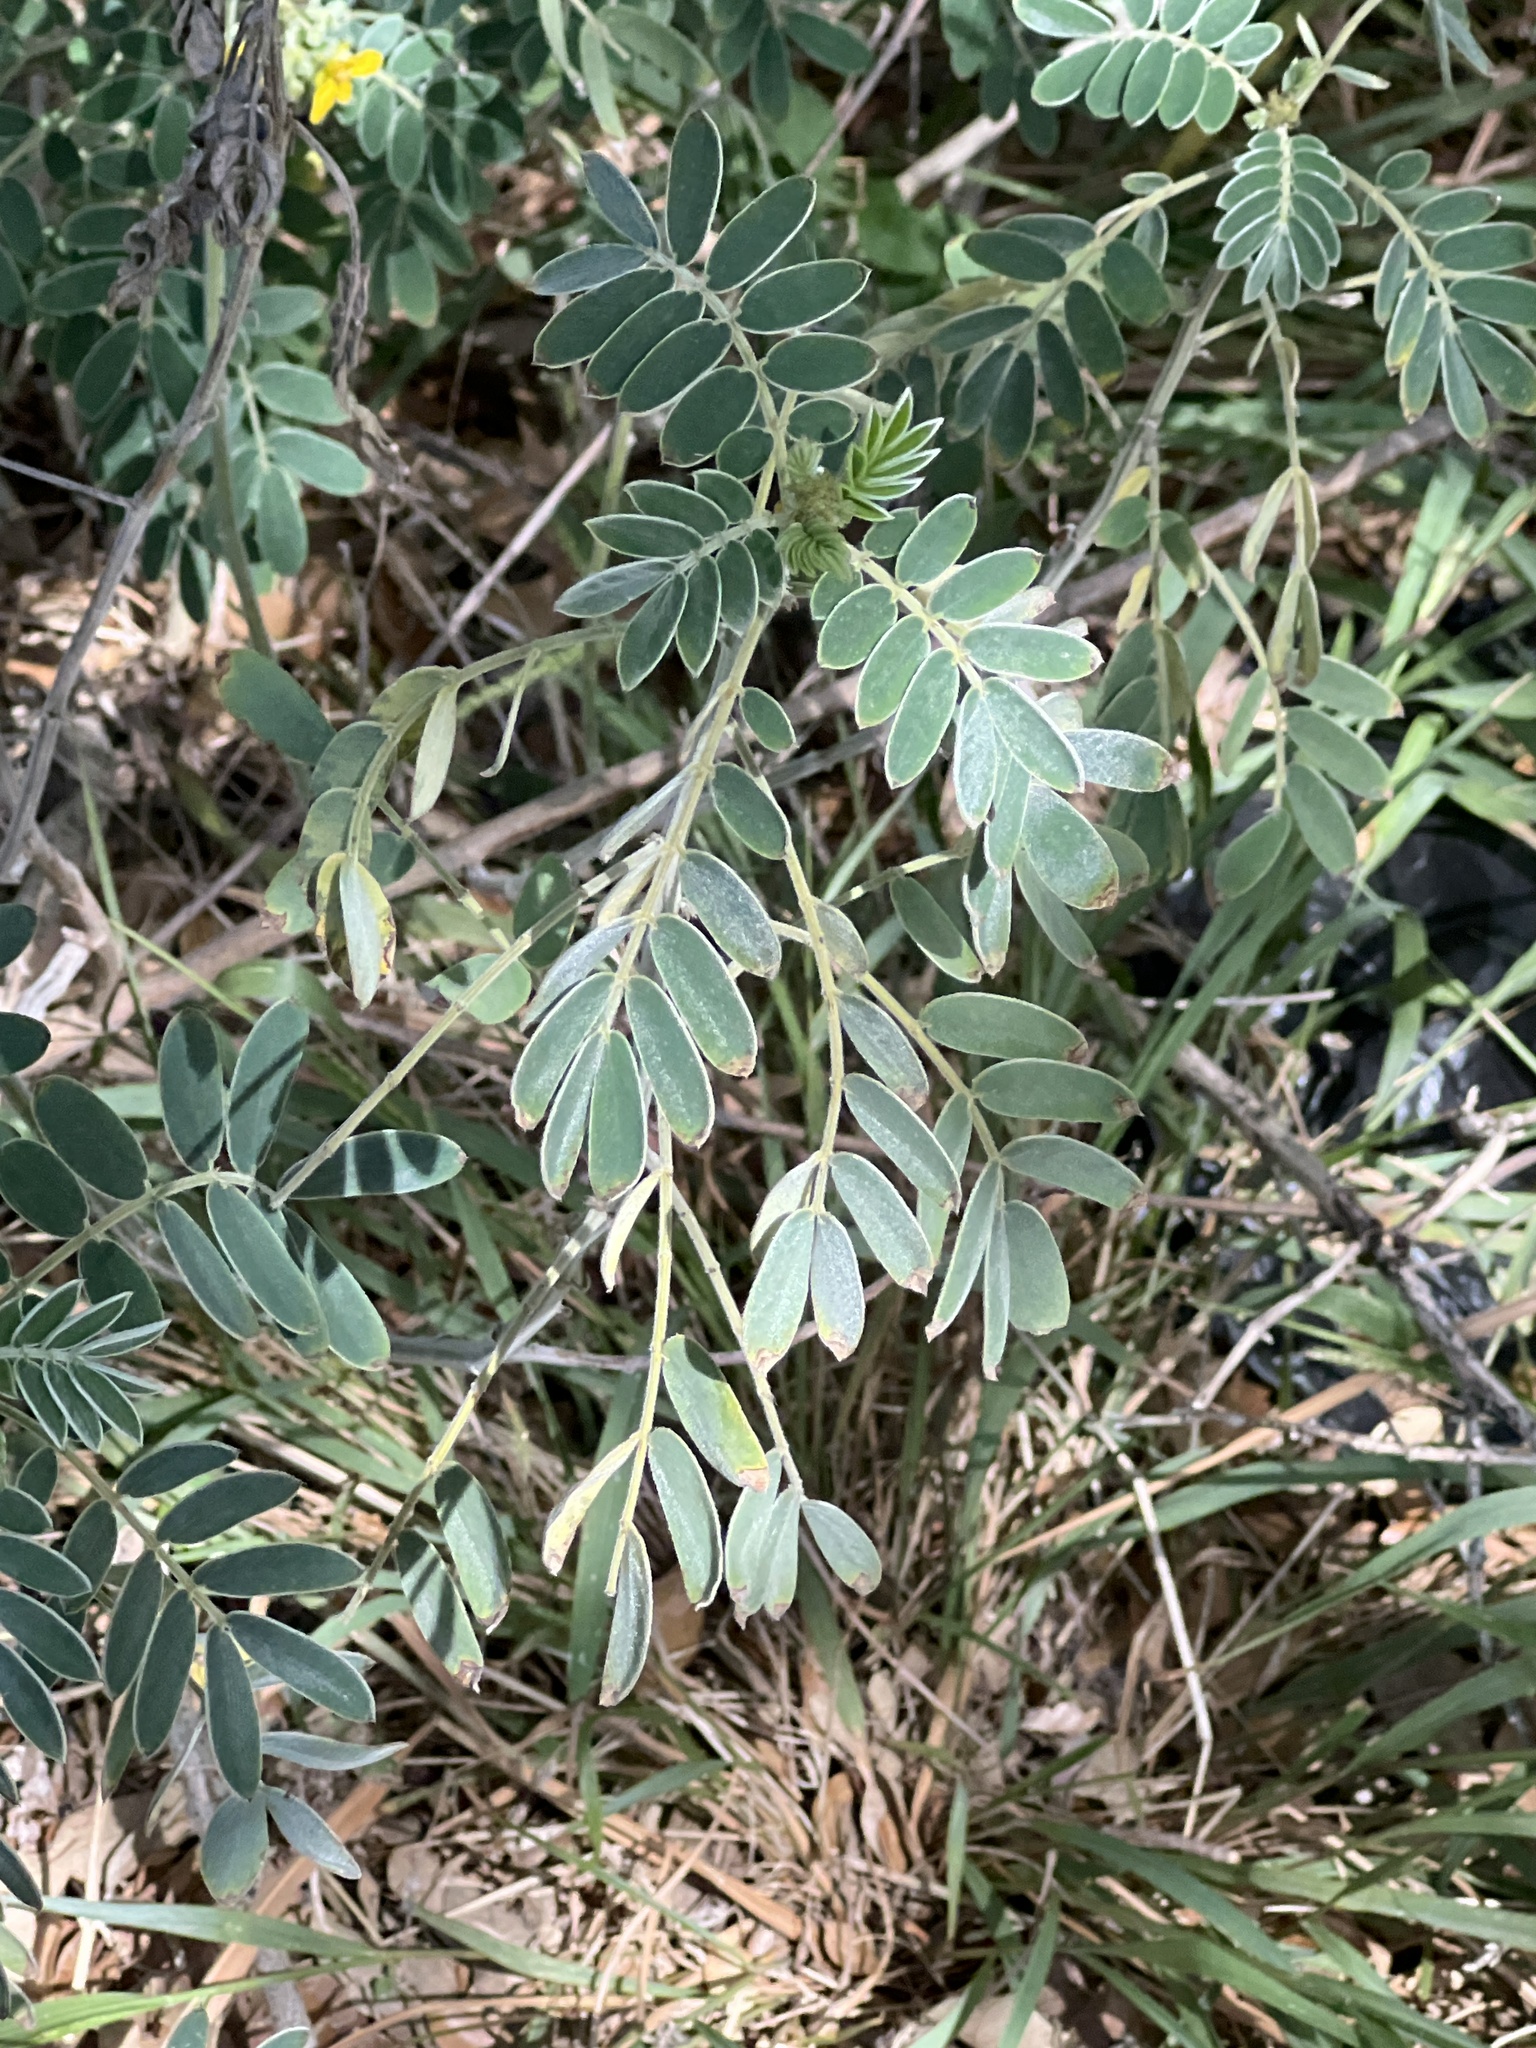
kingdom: Plantae
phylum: Tracheophyta
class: Magnoliopsida
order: Fabales
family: Fabaceae
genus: Senna
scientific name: Senna lindheimeriana
